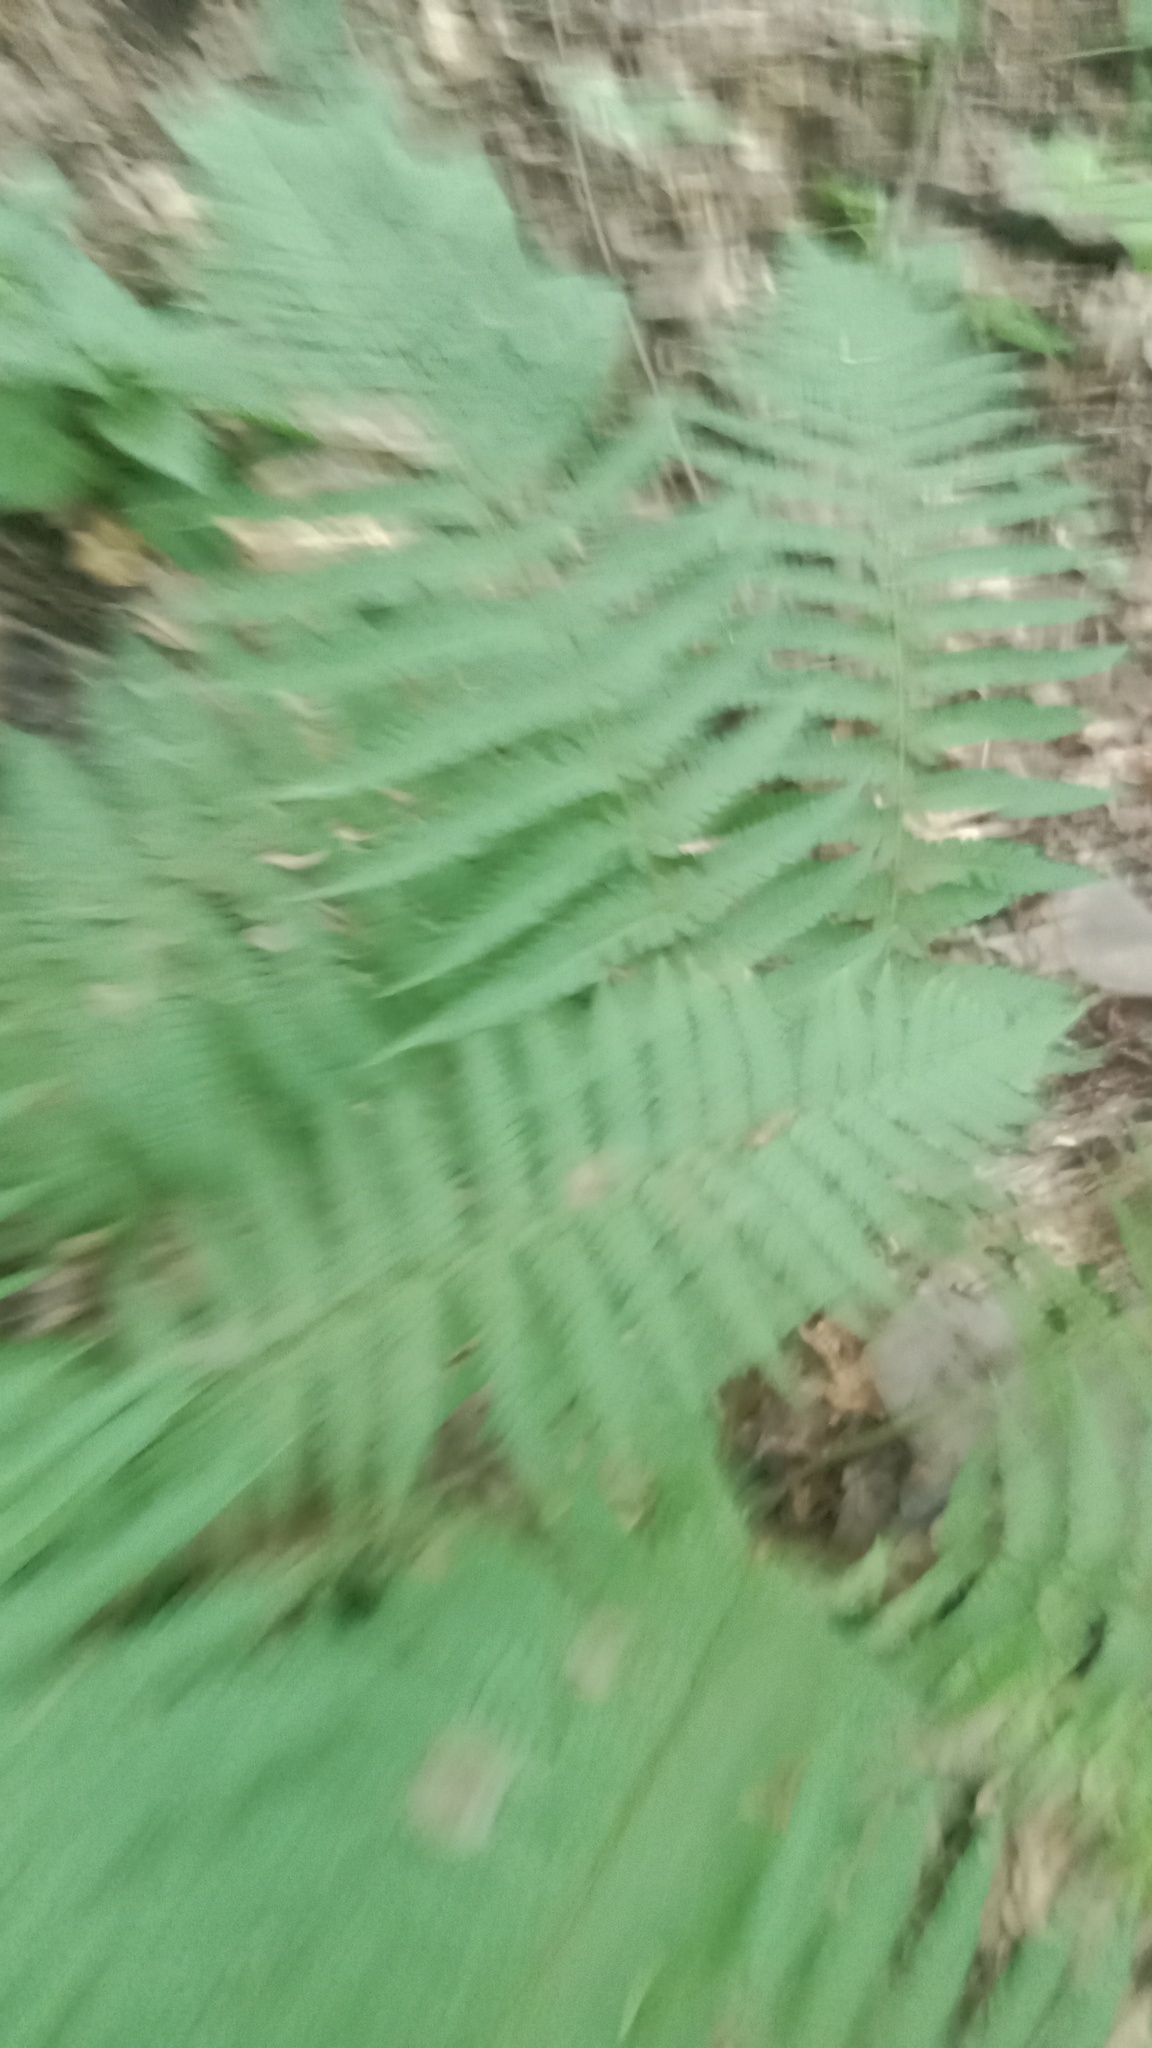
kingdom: Plantae
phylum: Tracheophyta
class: Polypodiopsida
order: Polypodiales
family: Dryopteridaceae
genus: Dryopteris
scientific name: Dryopteris filix-mas
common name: Male fern
